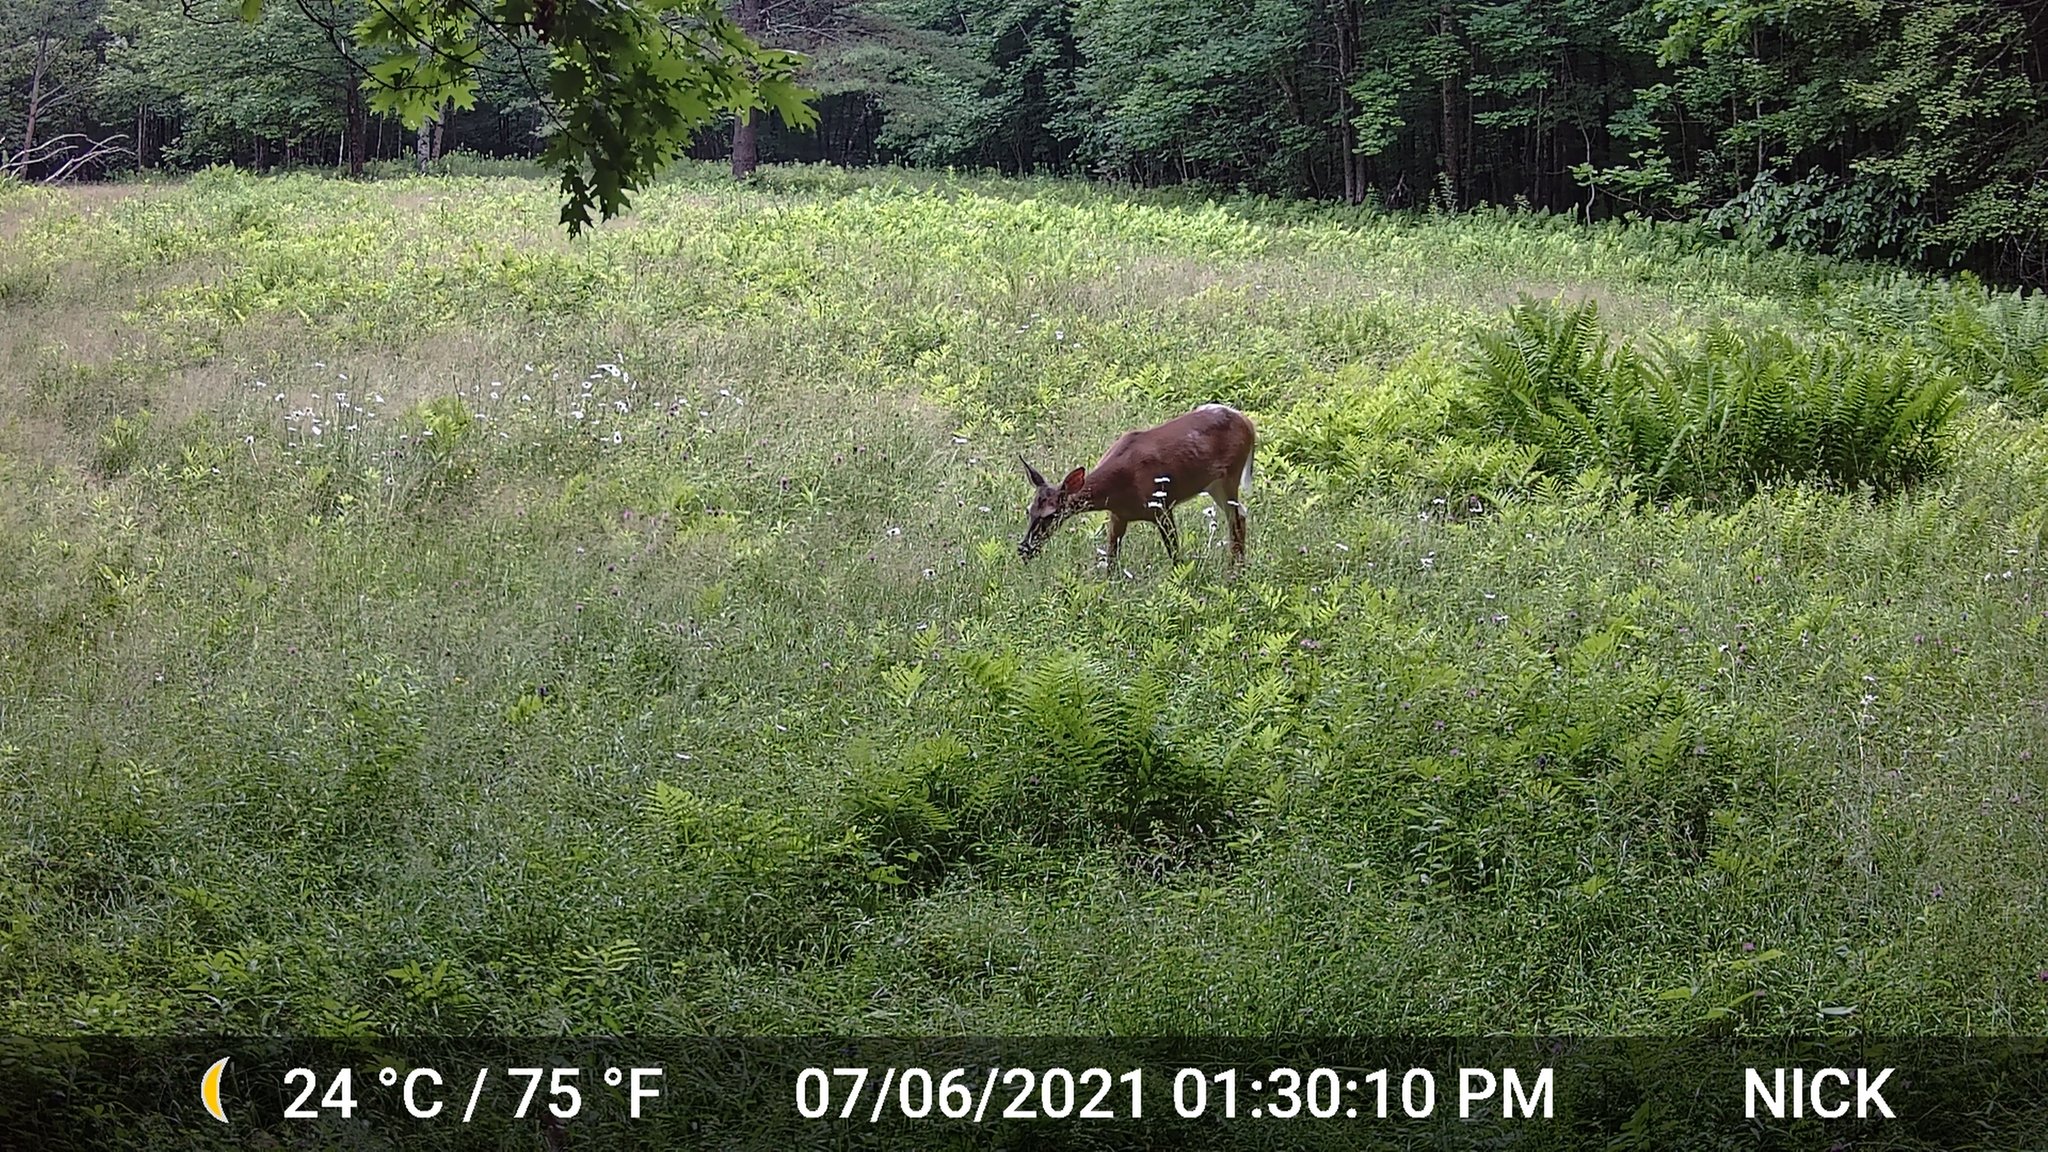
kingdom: Animalia
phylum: Chordata
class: Mammalia
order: Artiodactyla
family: Cervidae
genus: Odocoileus
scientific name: Odocoileus virginianus
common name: White-tailed deer
